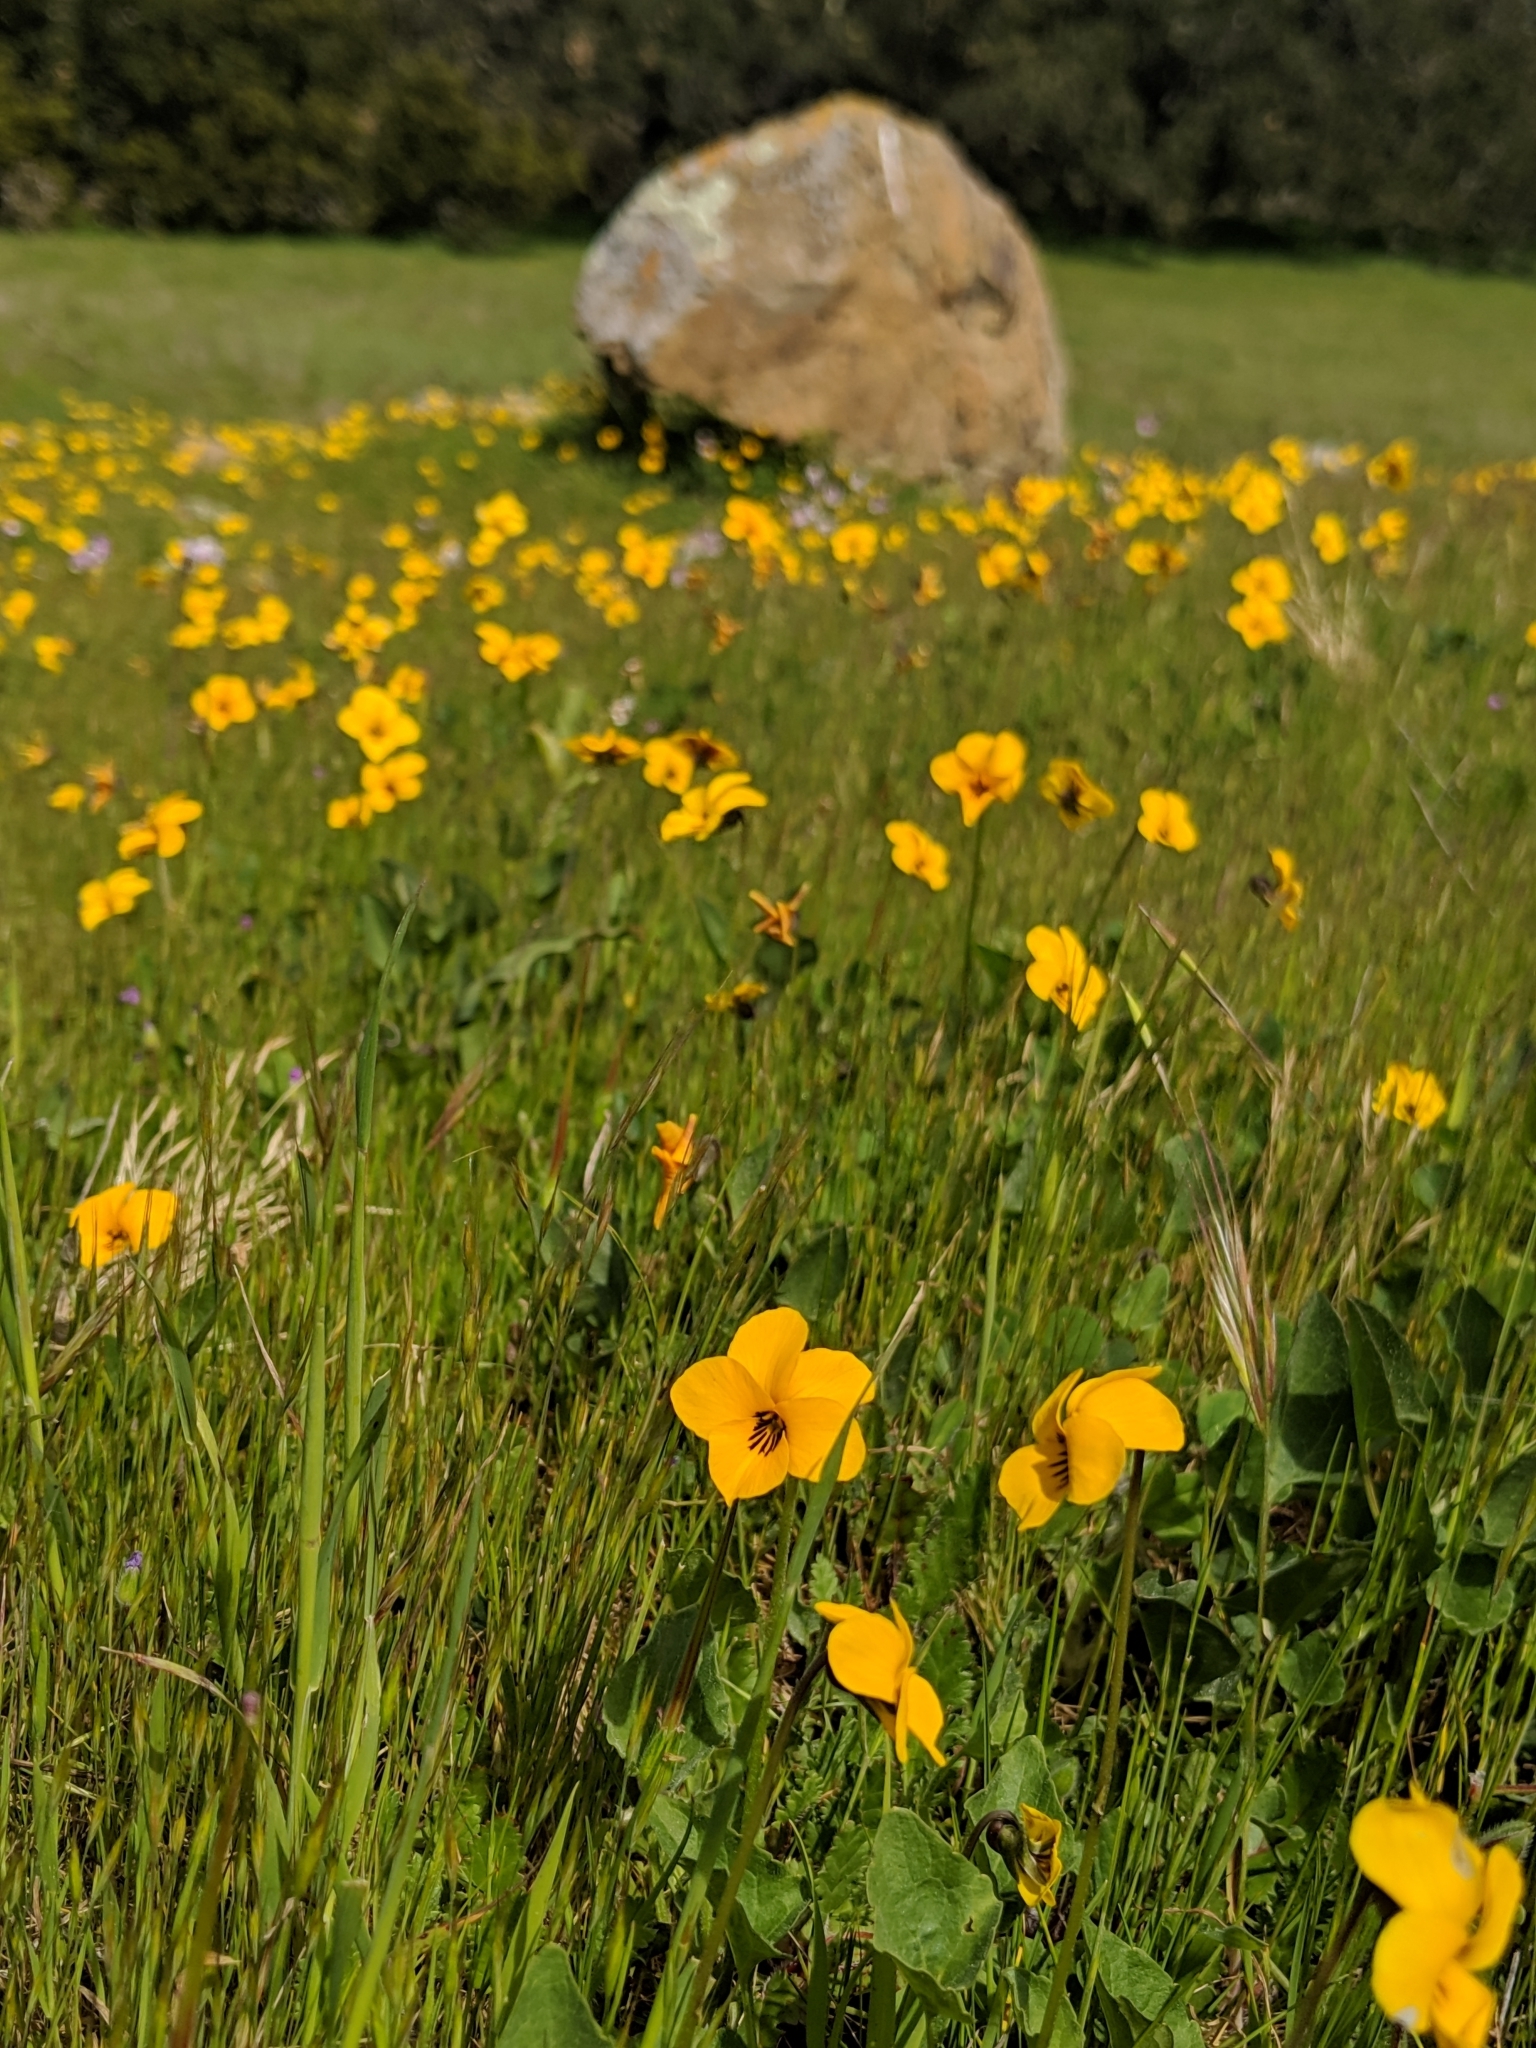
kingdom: Plantae
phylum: Tracheophyta
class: Magnoliopsida
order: Malpighiales
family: Violaceae
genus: Viola
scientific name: Viola pedunculata
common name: California golden violet
